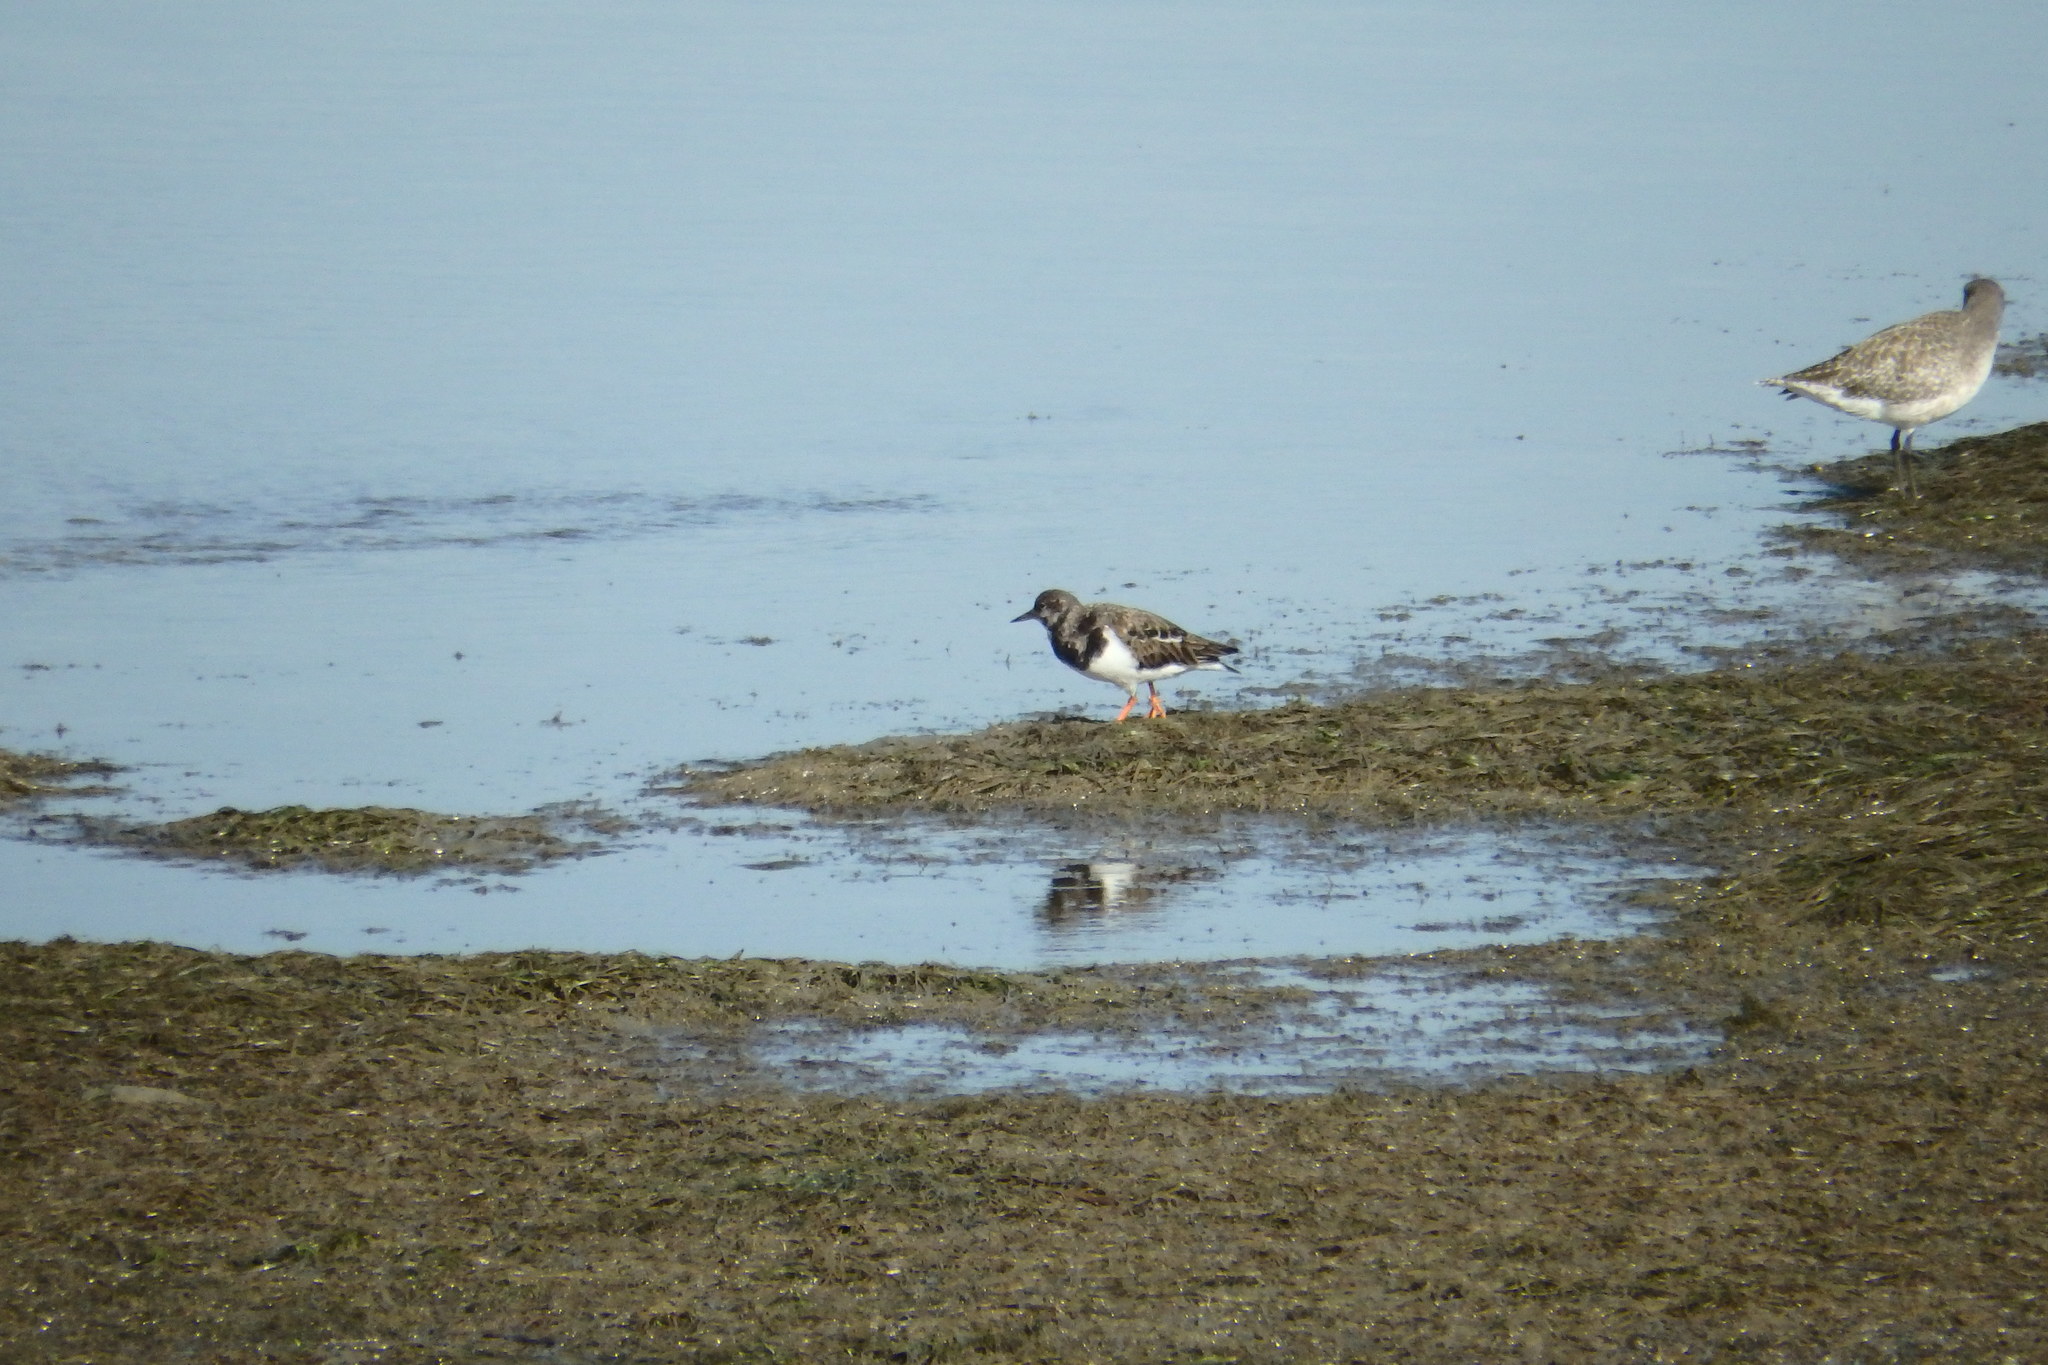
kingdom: Animalia
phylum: Chordata
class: Aves
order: Charadriiformes
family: Scolopacidae
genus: Arenaria
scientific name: Arenaria interpres
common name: Ruddy turnstone
